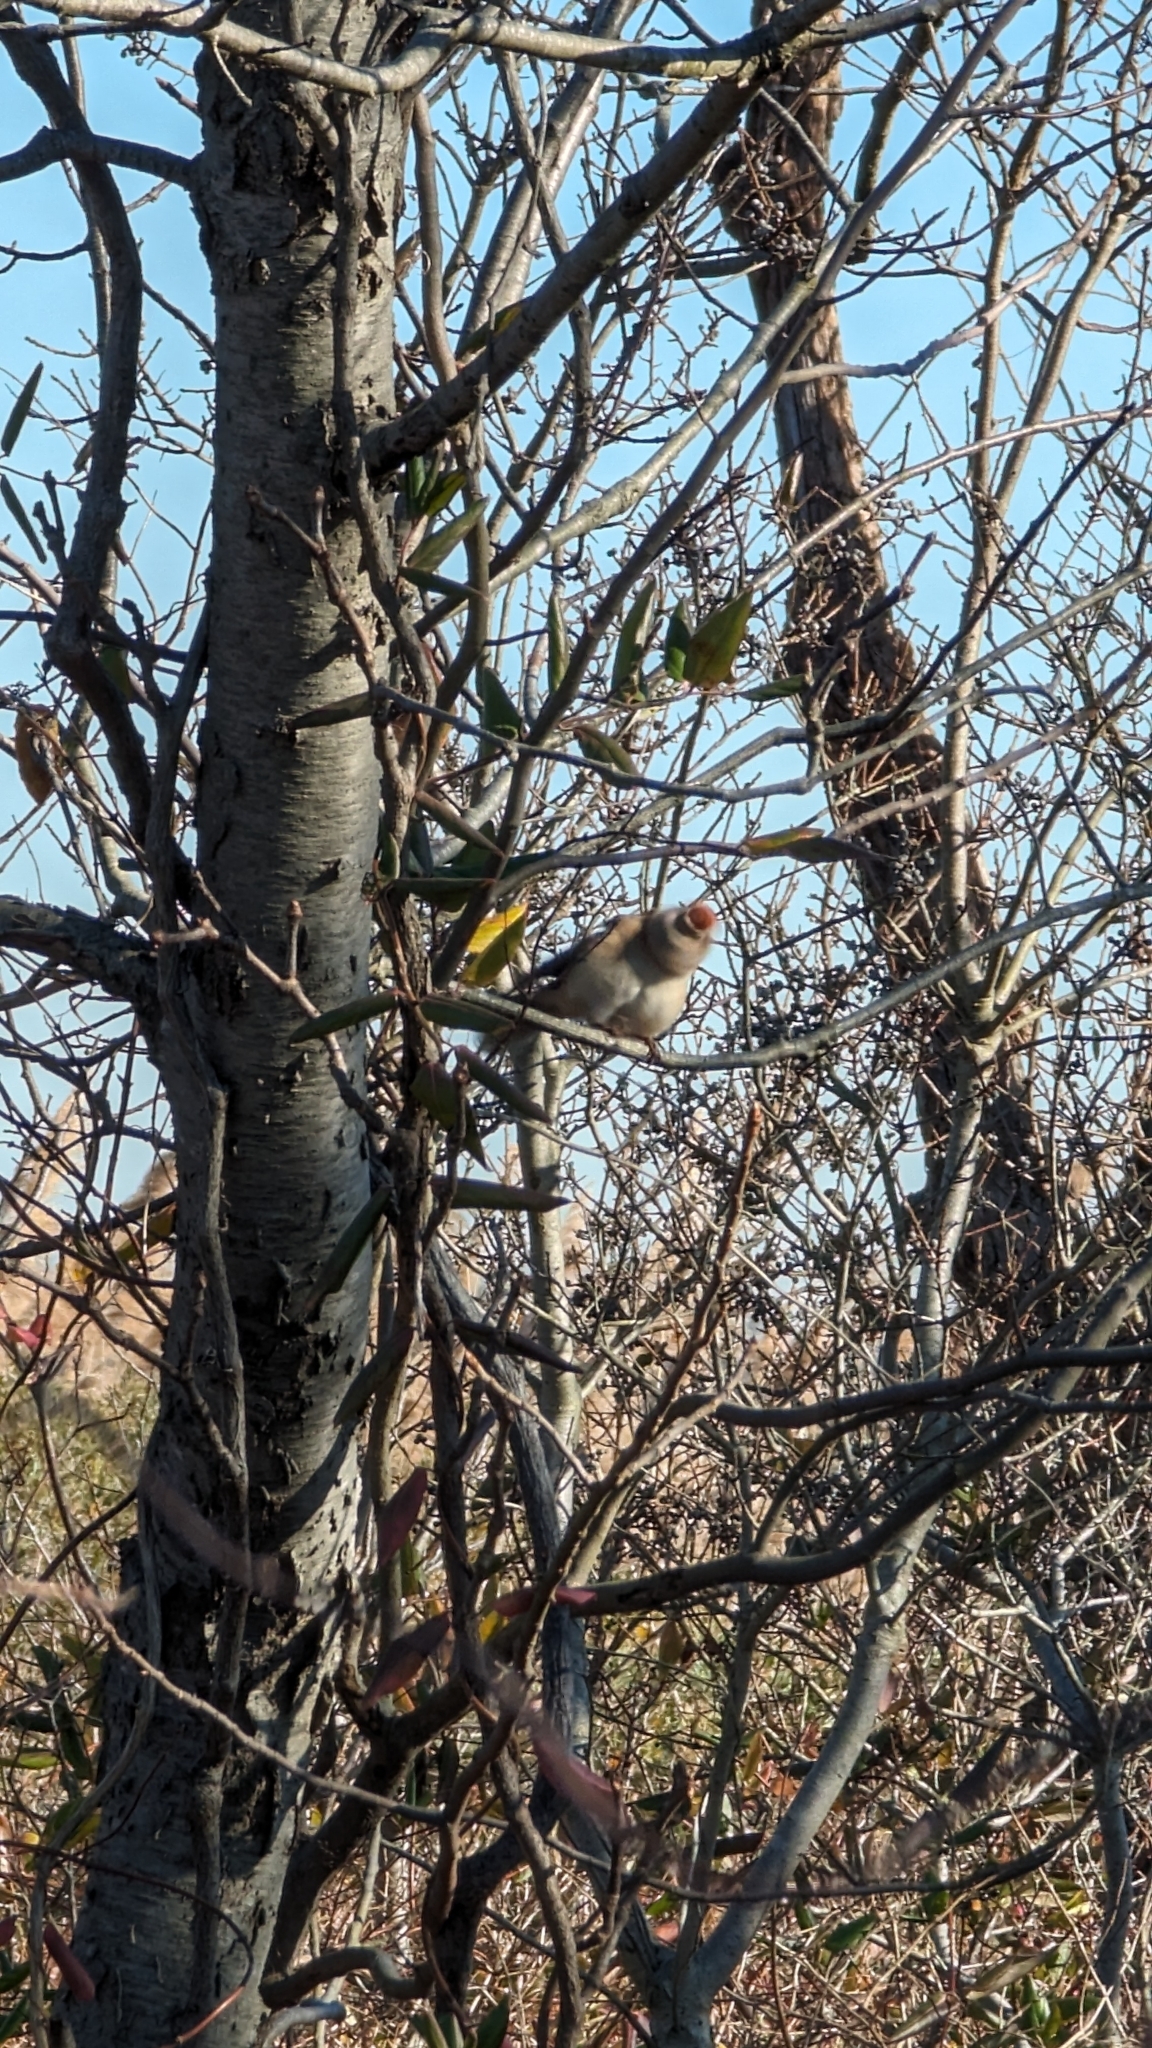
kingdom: Animalia
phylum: Chordata
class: Aves
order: Passeriformes
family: Passerellidae
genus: Spizelloides
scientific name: Spizelloides arborea
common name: American tree sparrow
